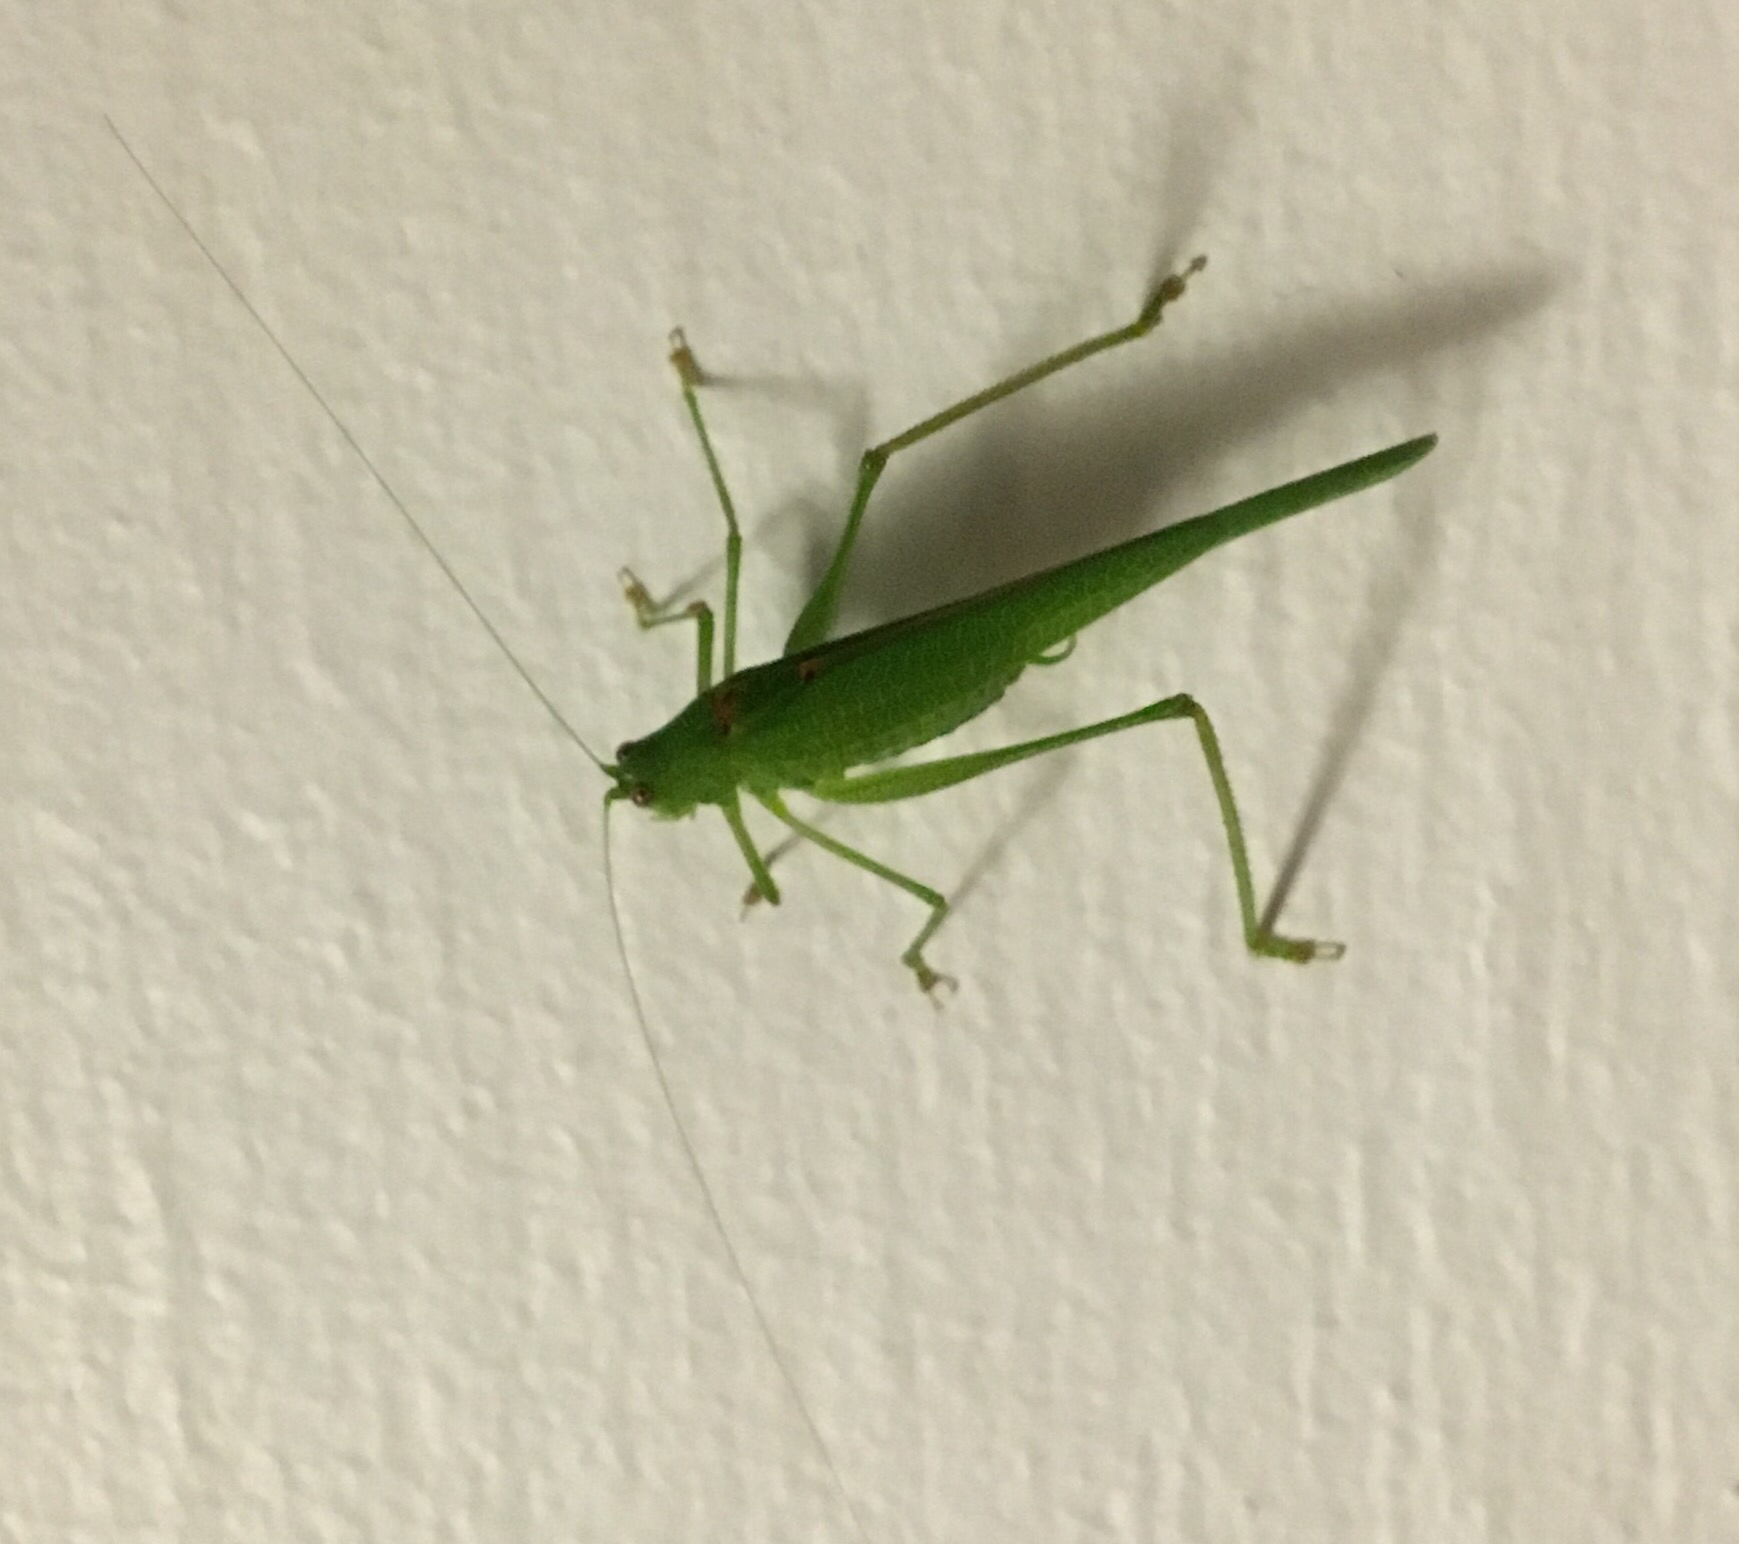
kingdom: Animalia
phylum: Arthropoda
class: Insecta
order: Orthoptera
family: Tettigoniidae
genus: Phaneroptera
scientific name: Phaneroptera nana
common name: Southern sickle bush-cricket
